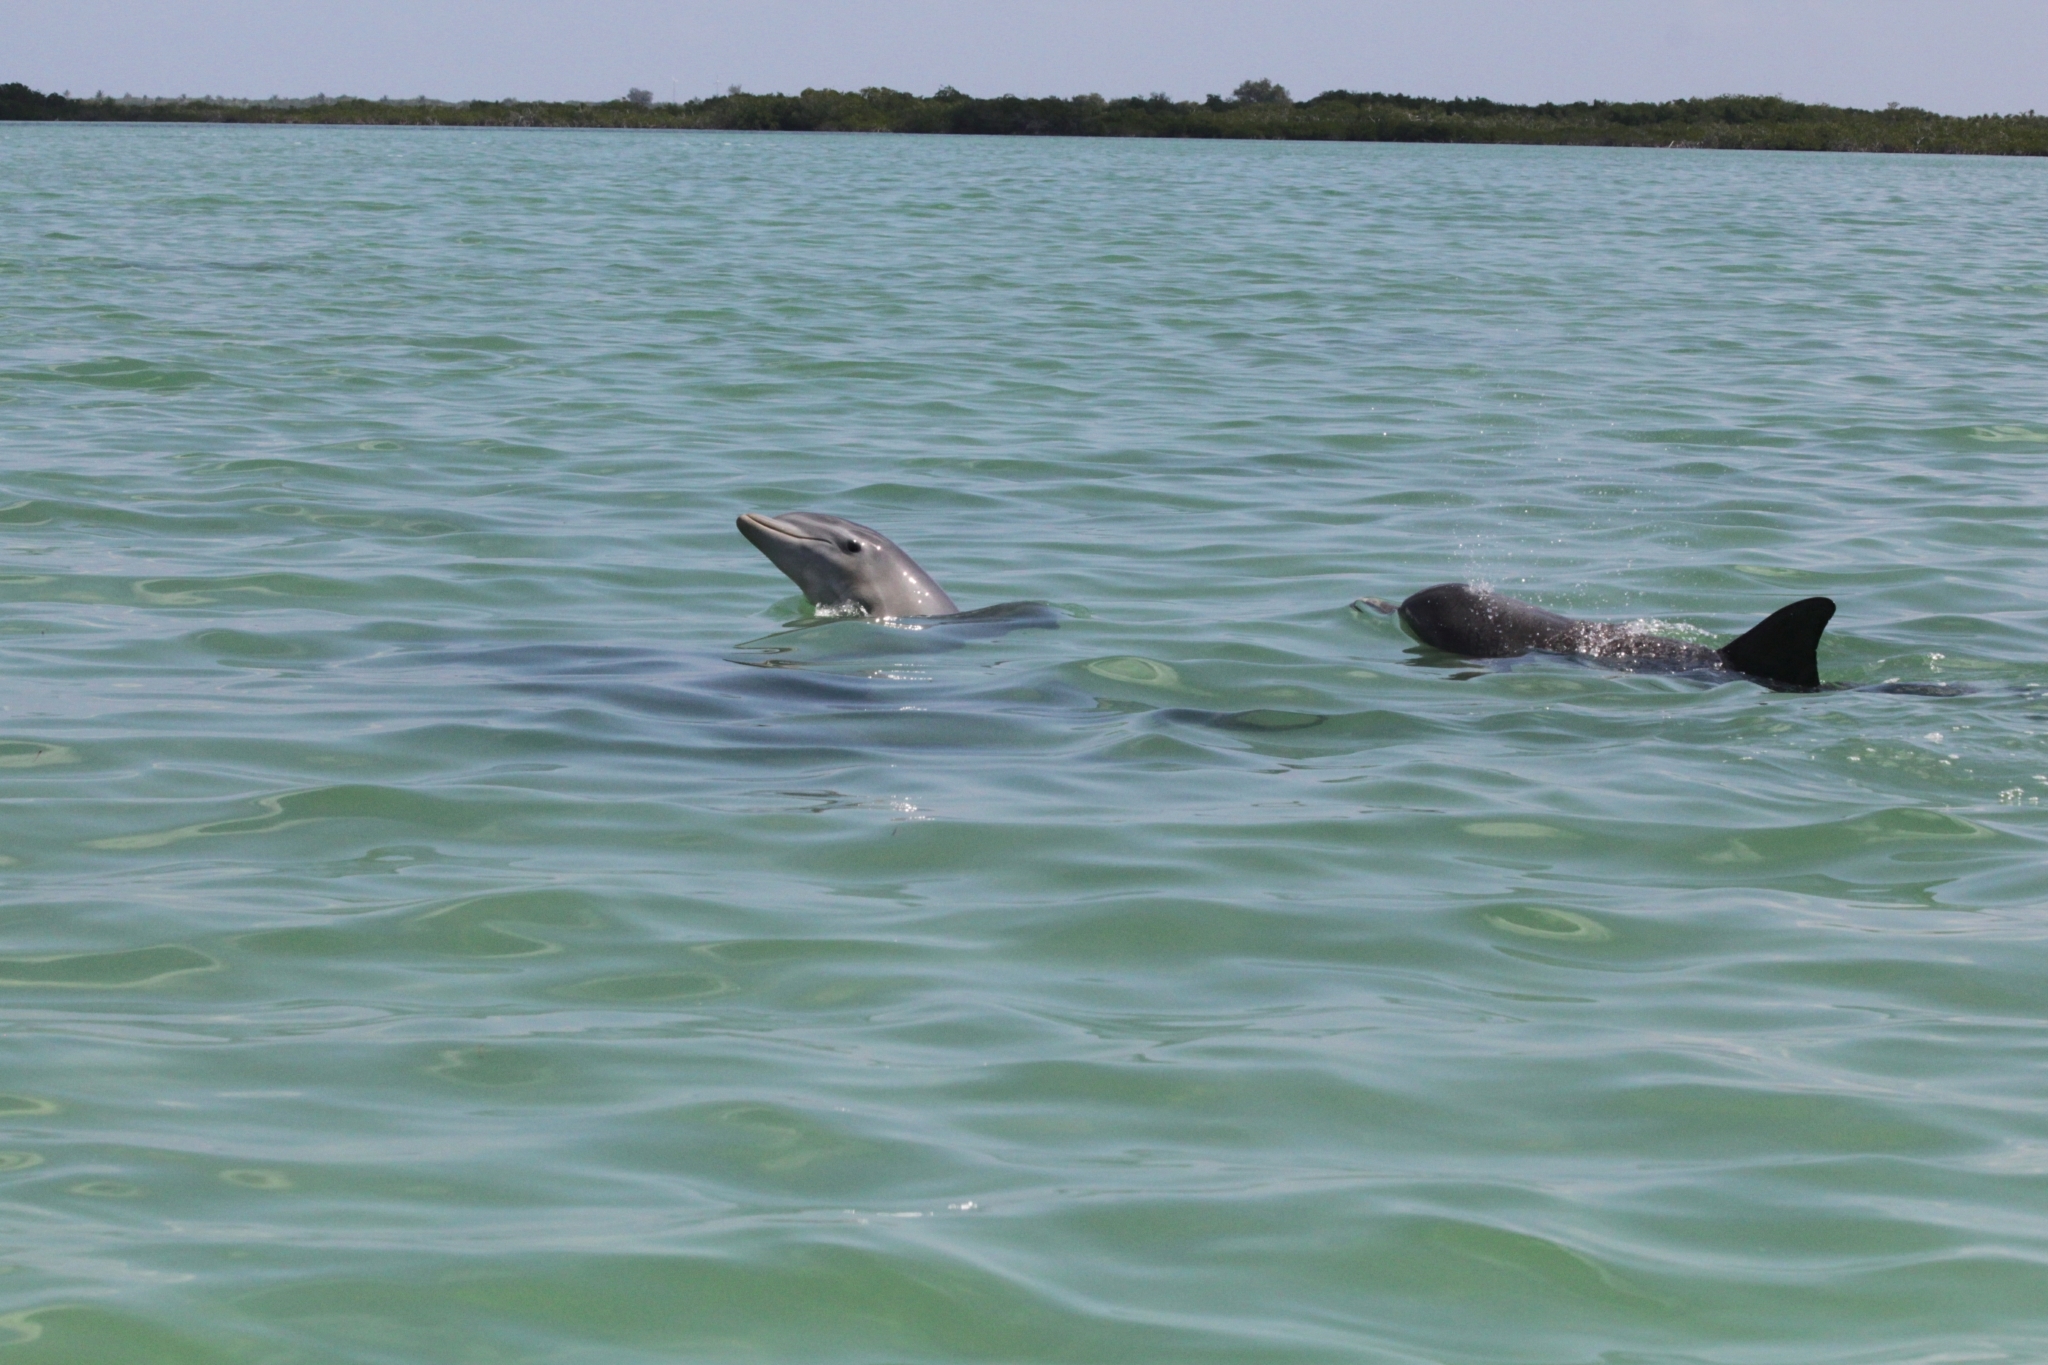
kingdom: Animalia
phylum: Chordata
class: Mammalia
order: Cetacea
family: Delphinidae
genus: Tursiops
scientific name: Tursiops truncatus
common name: Bottlenose dolphin
